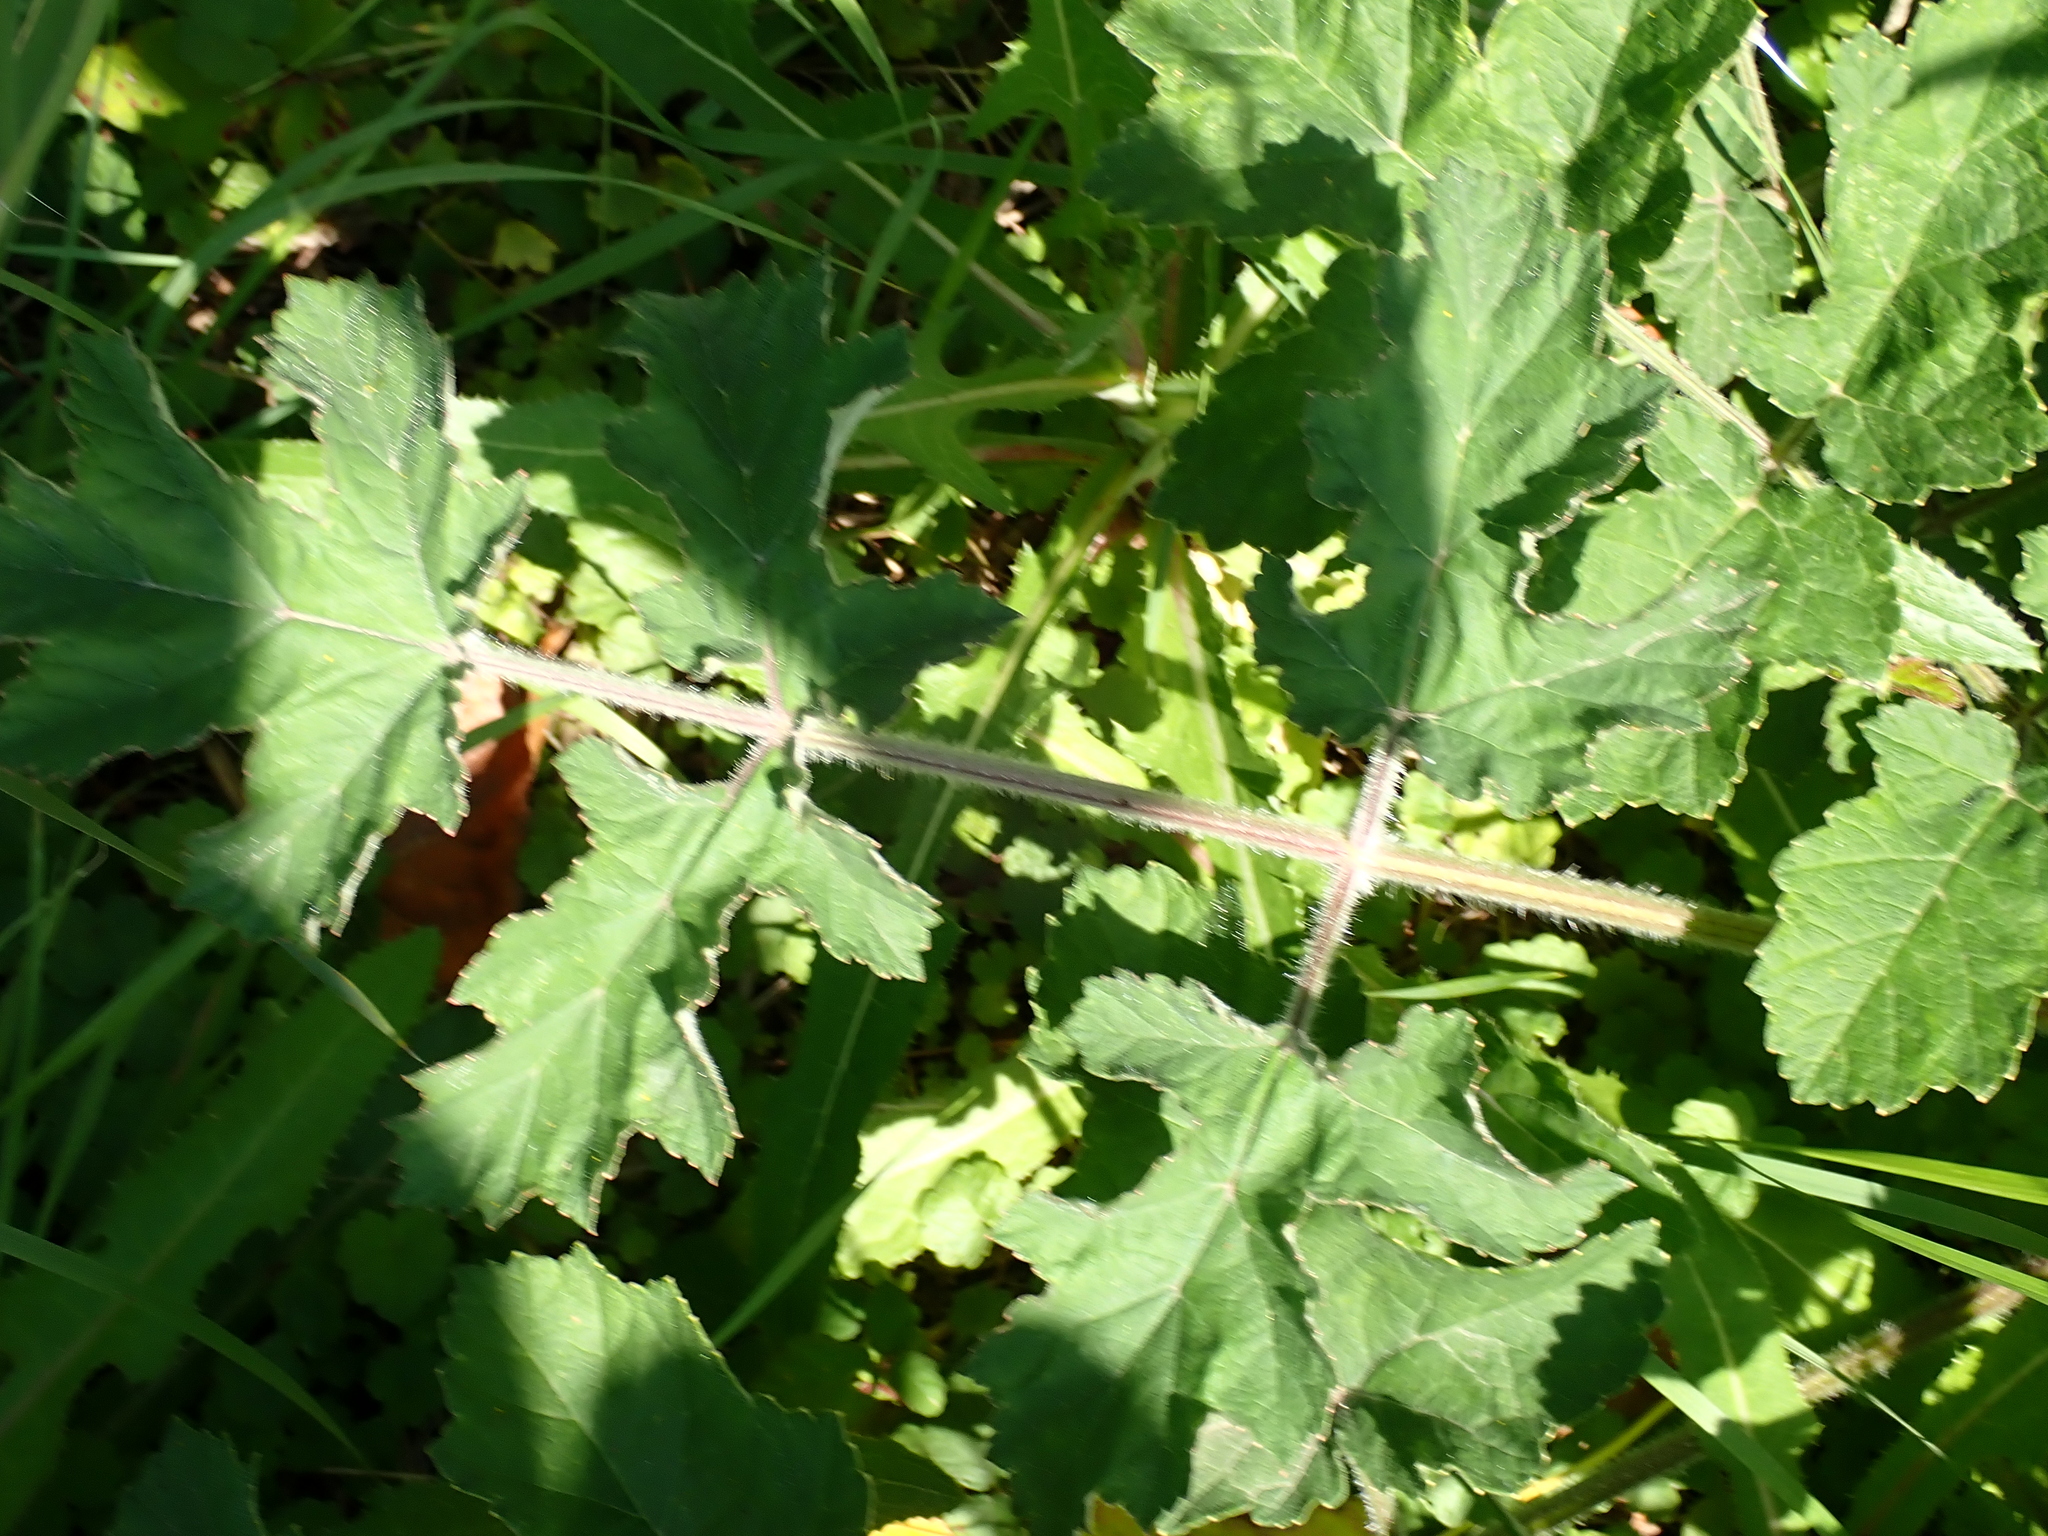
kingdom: Plantae
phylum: Tracheophyta
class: Magnoliopsida
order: Apiales
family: Apiaceae
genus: Heracleum
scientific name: Heracleum sphondylium
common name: Hogweed
